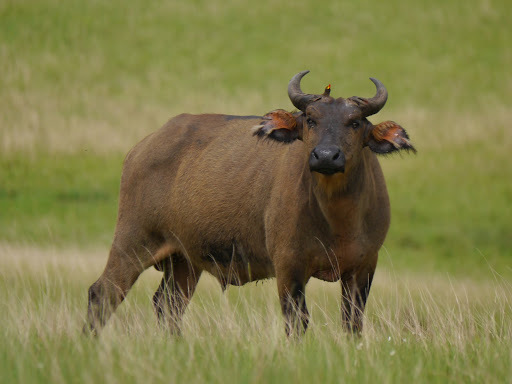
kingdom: Animalia
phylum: Chordata
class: Mammalia
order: Artiodactyla
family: Bovidae
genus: Syncerus
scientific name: Syncerus caffer
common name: African buffalo
